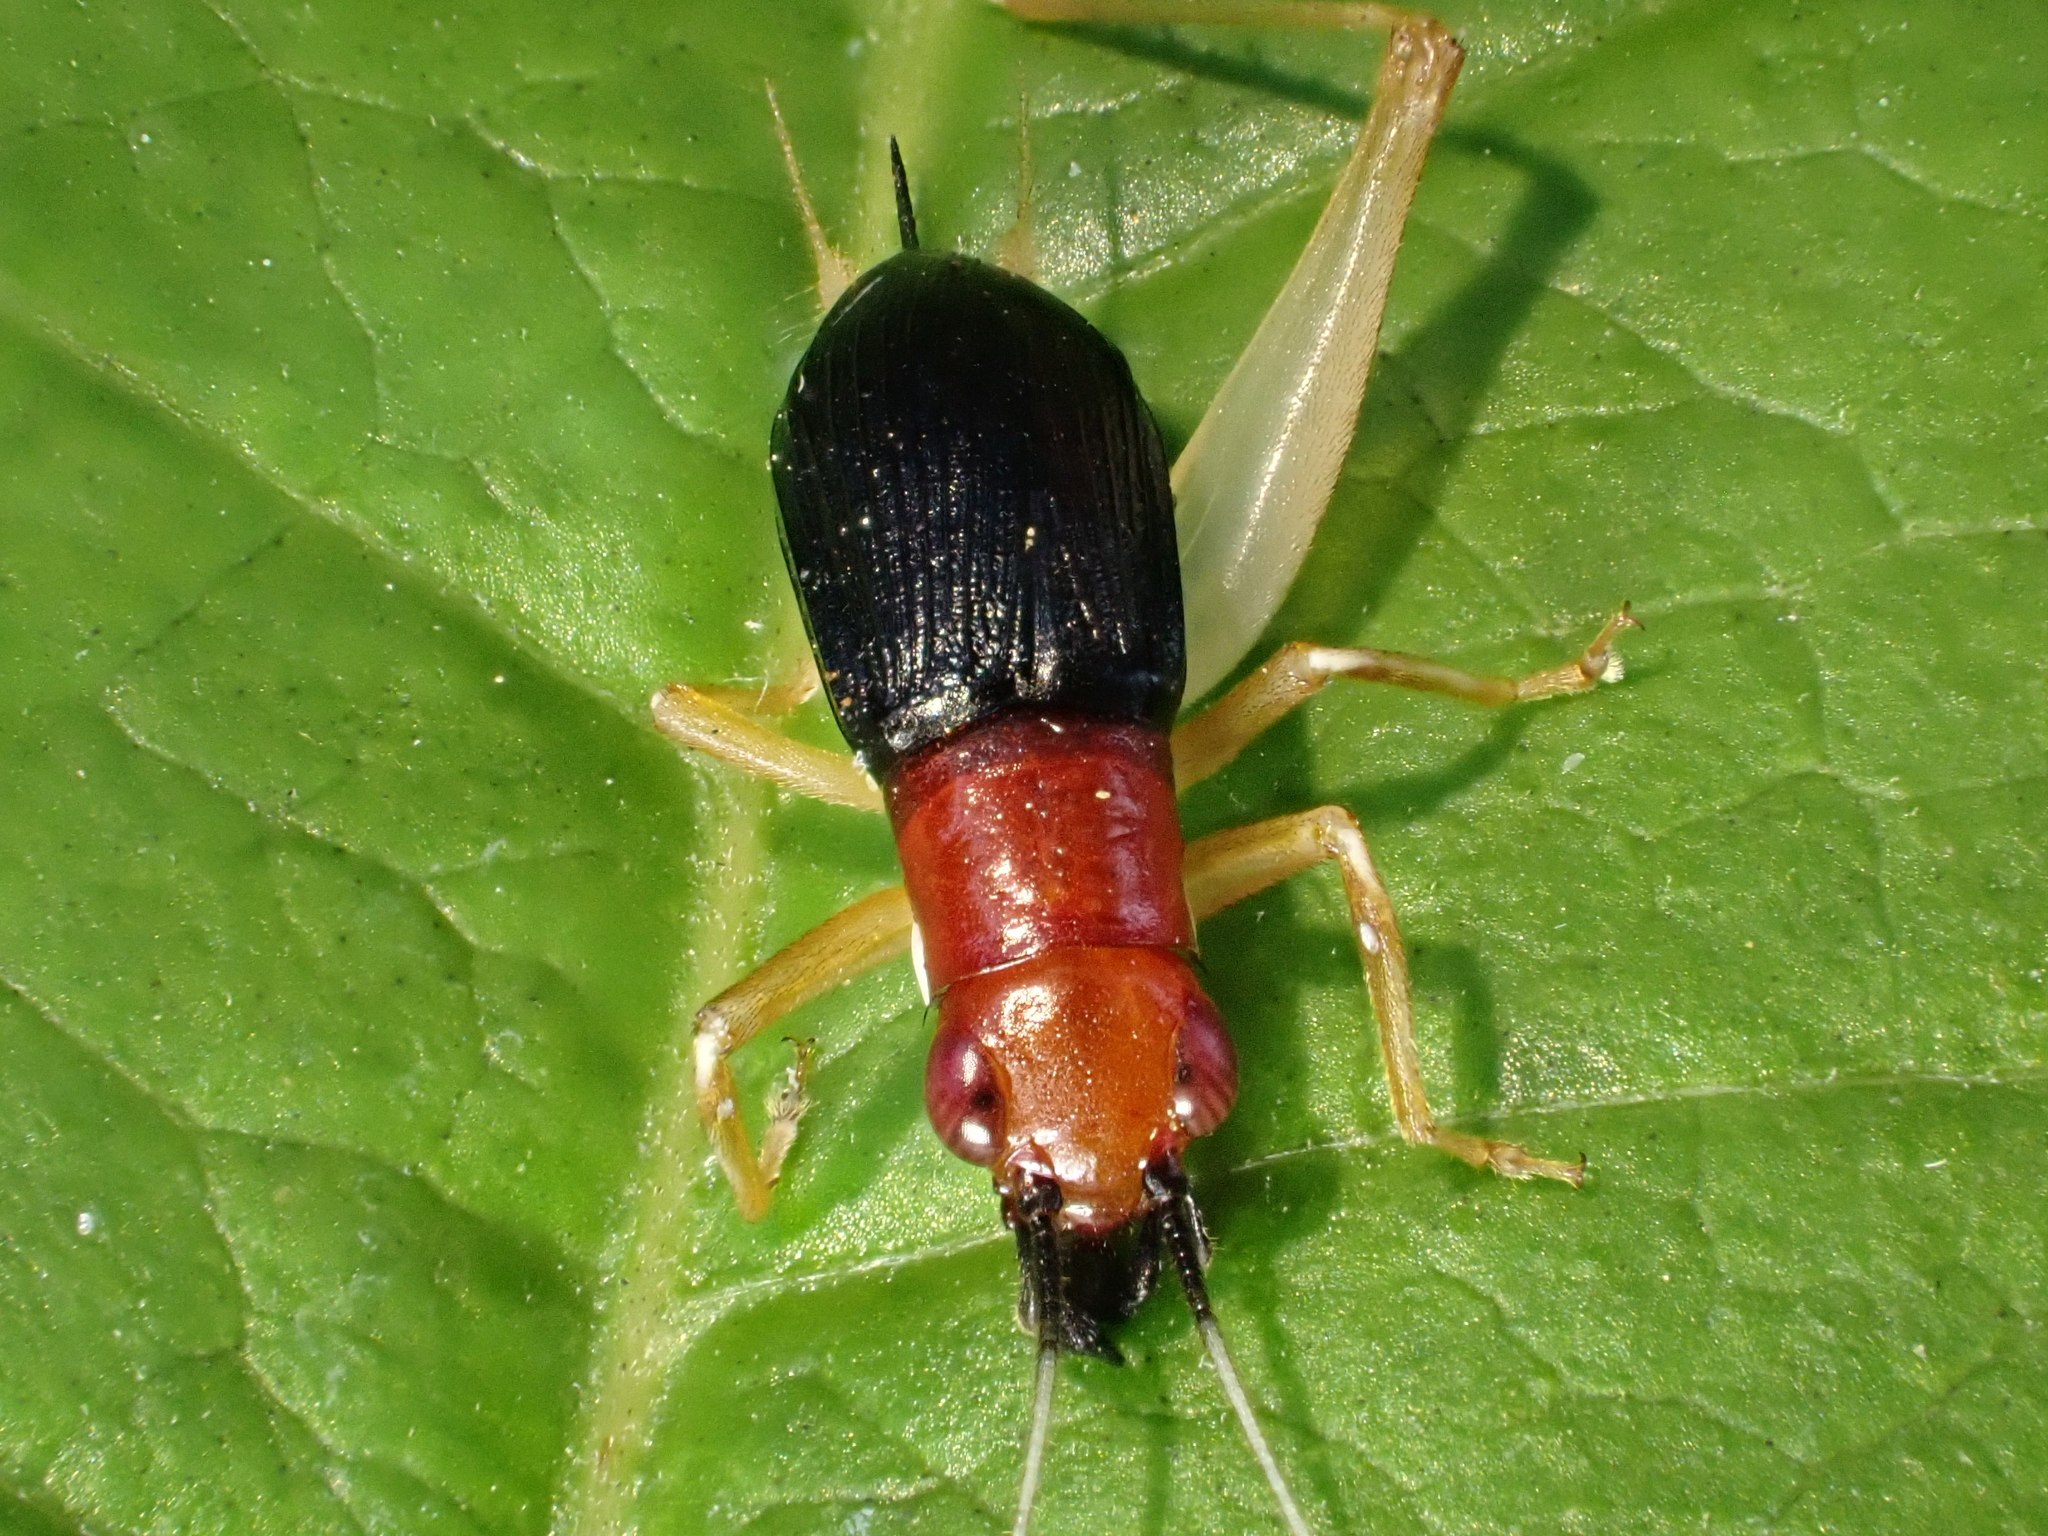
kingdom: Animalia
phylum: Arthropoda
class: Insecta
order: Orthoptera
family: Trigonidiidae
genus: Phyllopalpus
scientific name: Phyllopalpus pulchellus
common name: Handsome trig
